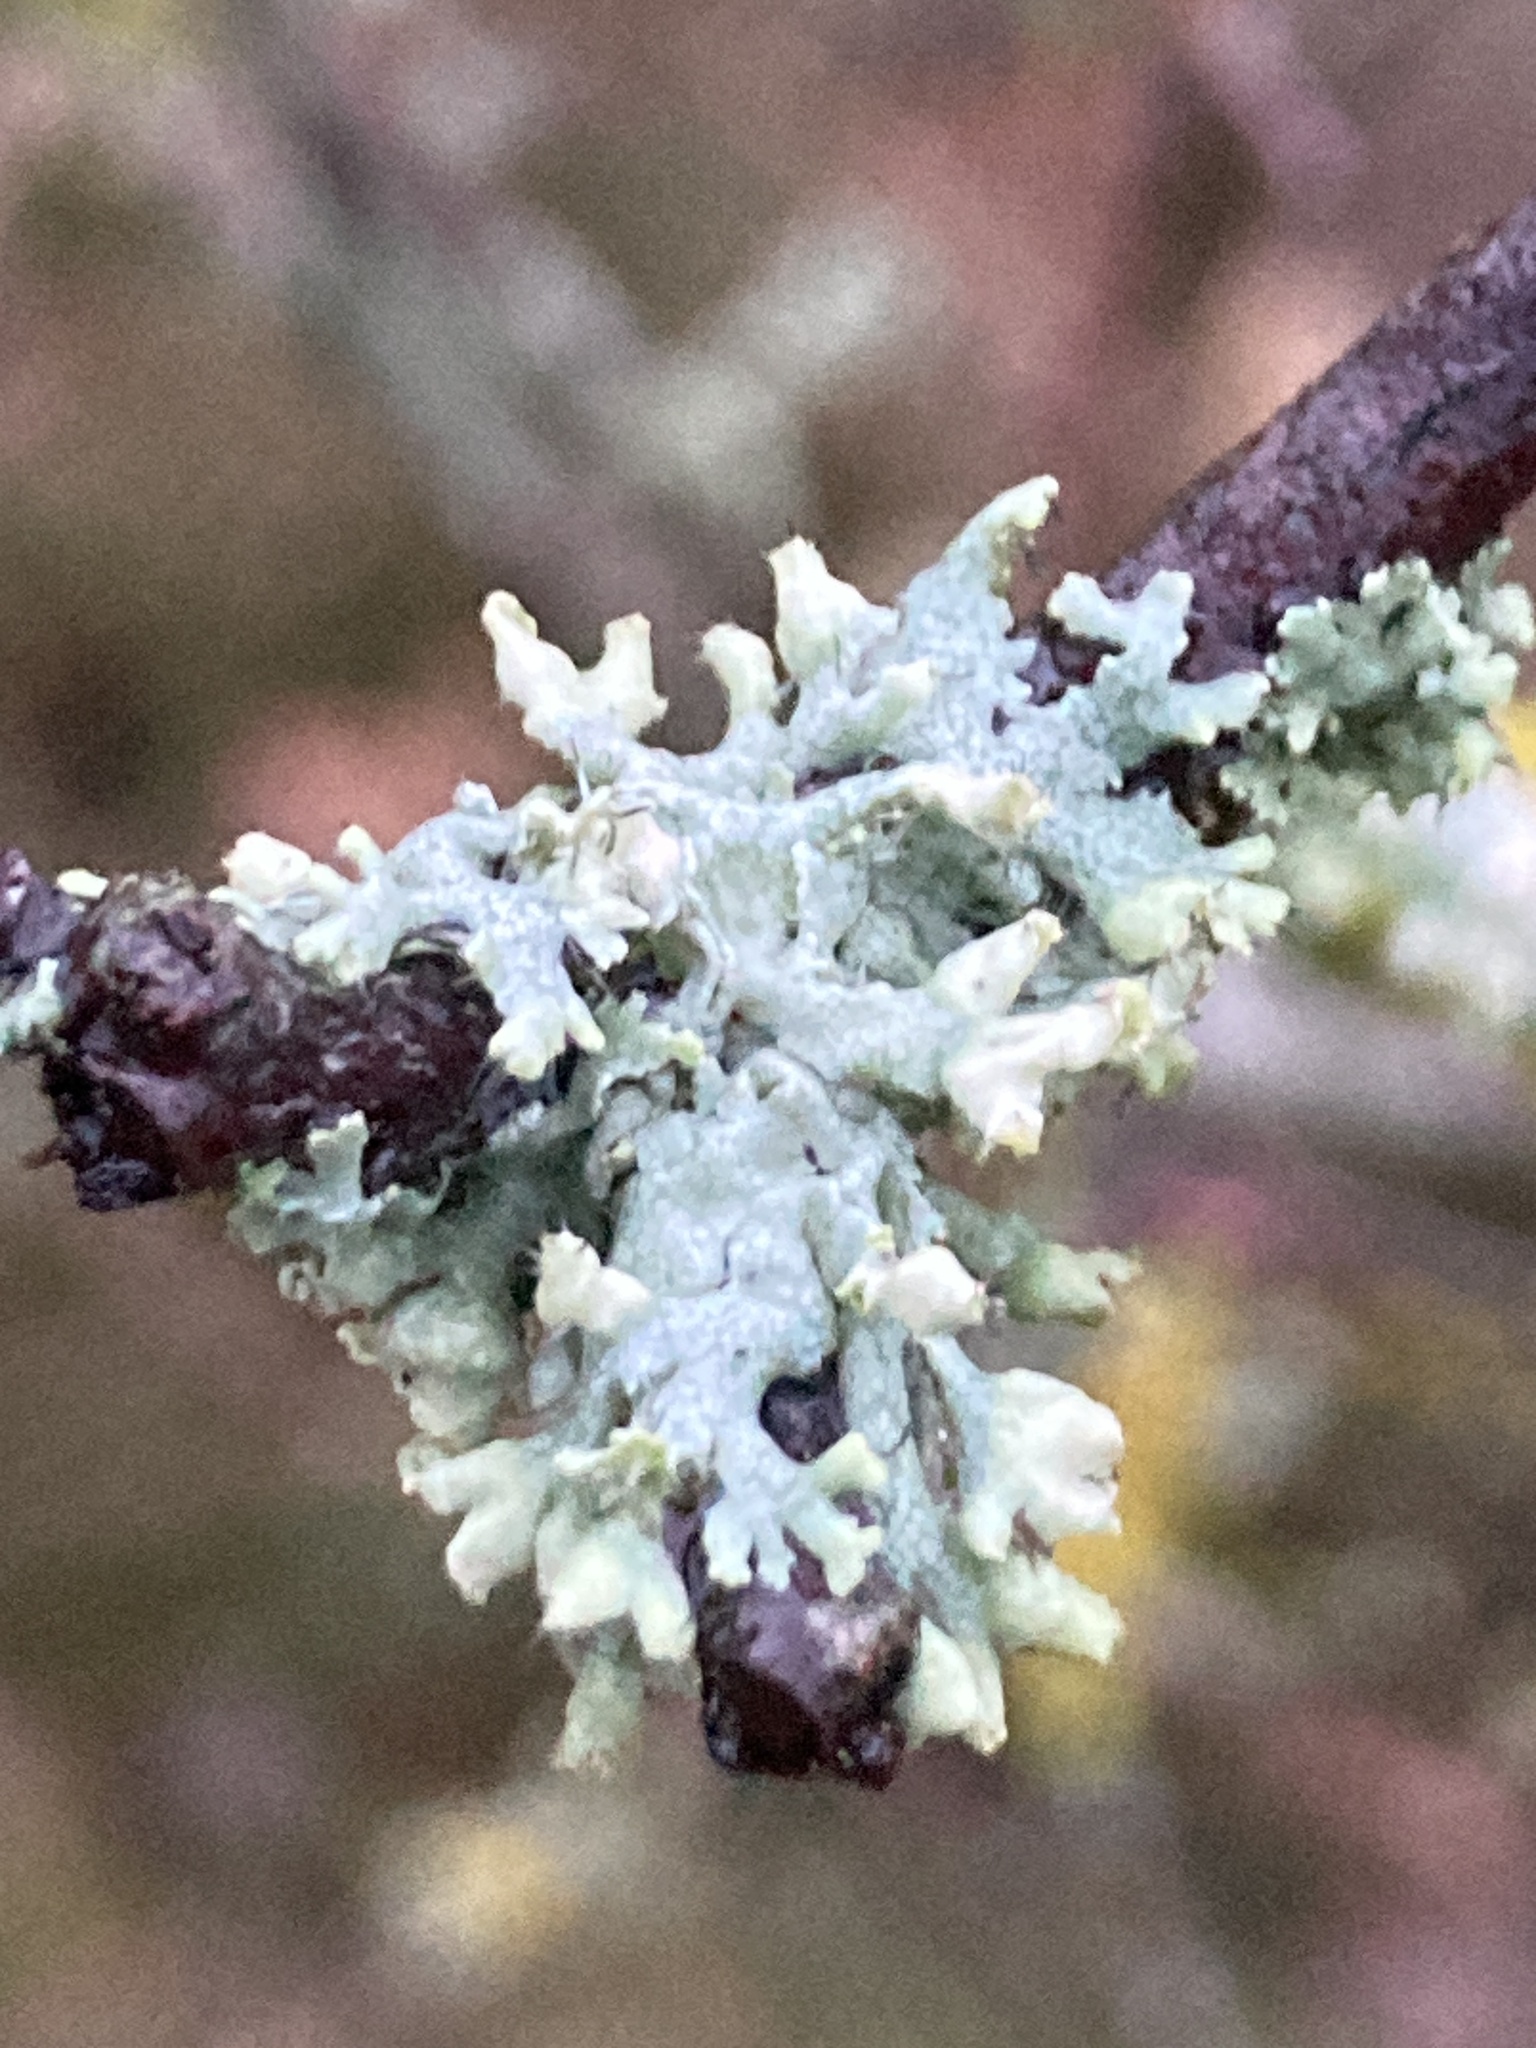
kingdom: Fungi
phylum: Ascomycota
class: Lecanoromycetes
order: Caliciales
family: Physciaceae
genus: Physcia
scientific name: Physcia adscendens
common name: Hooded rosette lichen
